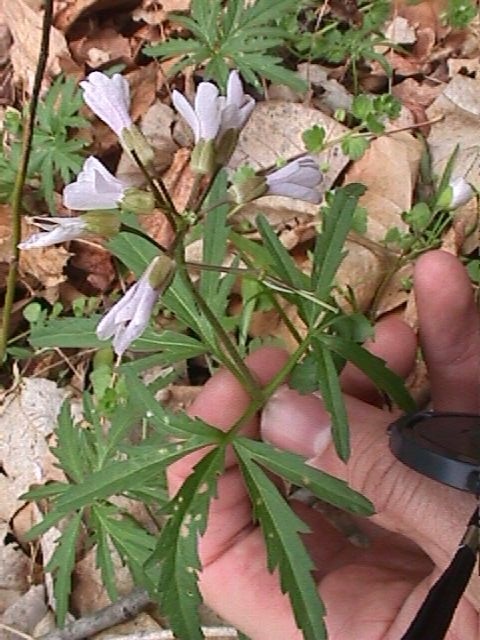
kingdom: Plantae
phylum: Tracheophyta
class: Magnoliopsida
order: Brassicales
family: Brassicaceae
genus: Cardamine
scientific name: Cardamine concatenata
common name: Cut-leaf toothcup
